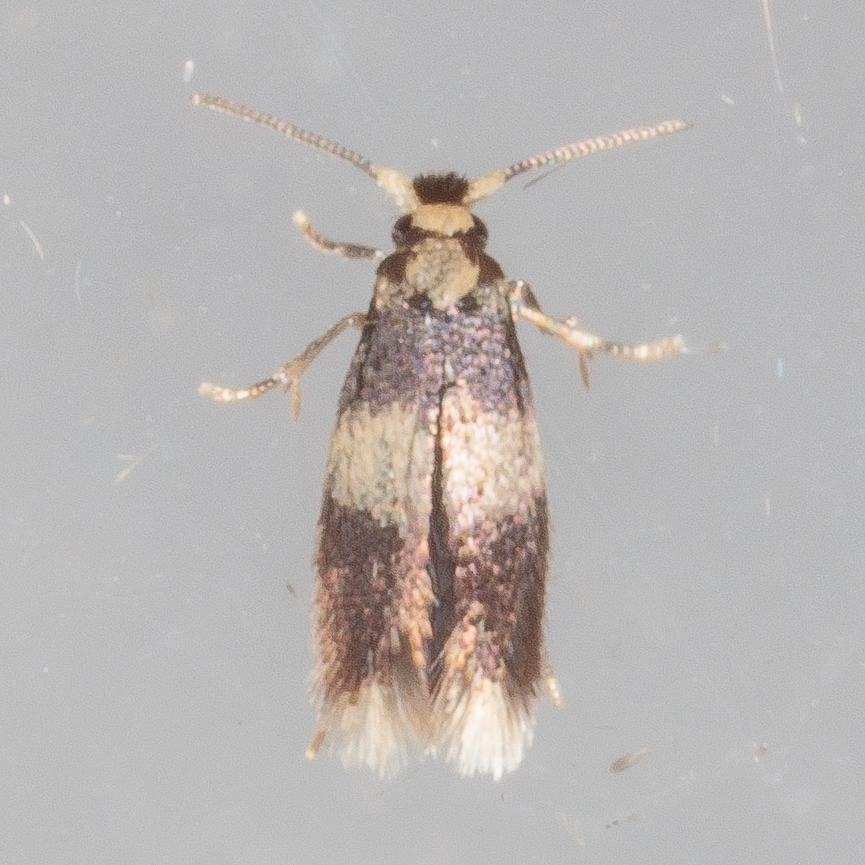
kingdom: Animalia
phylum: Arthropoda
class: Insecta
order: Lepidoptera
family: Nepticulidae
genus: Stigmella
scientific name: Stigmella nigriverticella
